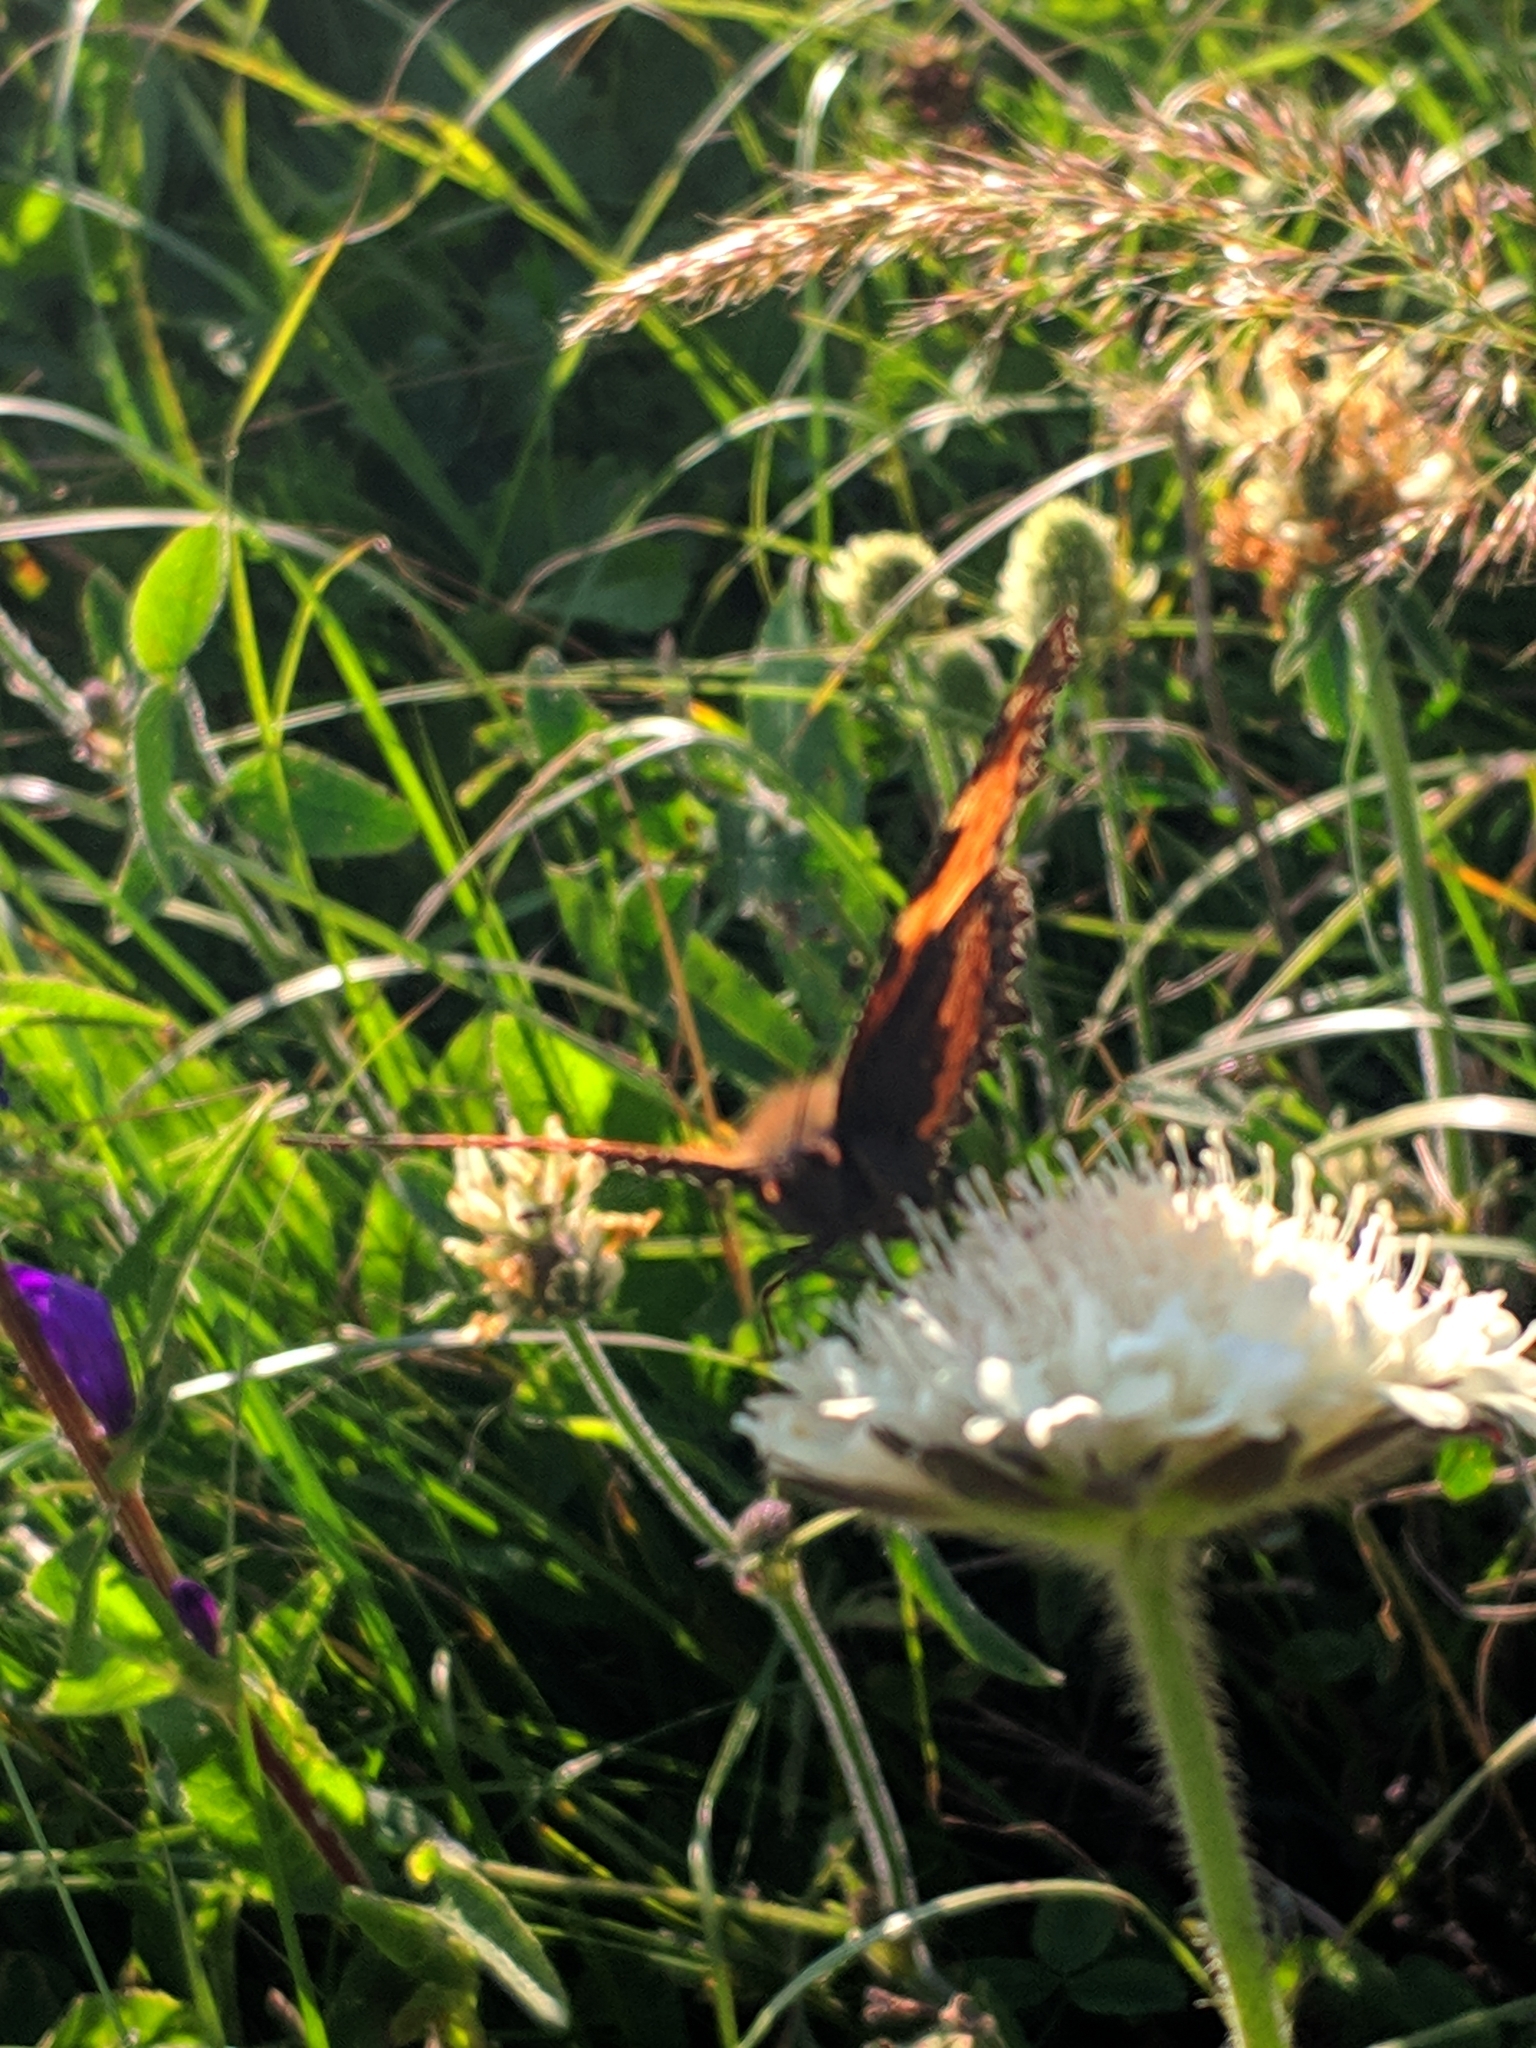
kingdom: Animalia
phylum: Arthropoda
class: Insecta
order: Lepidoptera
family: Nymphalidae
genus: Aglais
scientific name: Aglais urticae
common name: Small tortoiseshell
